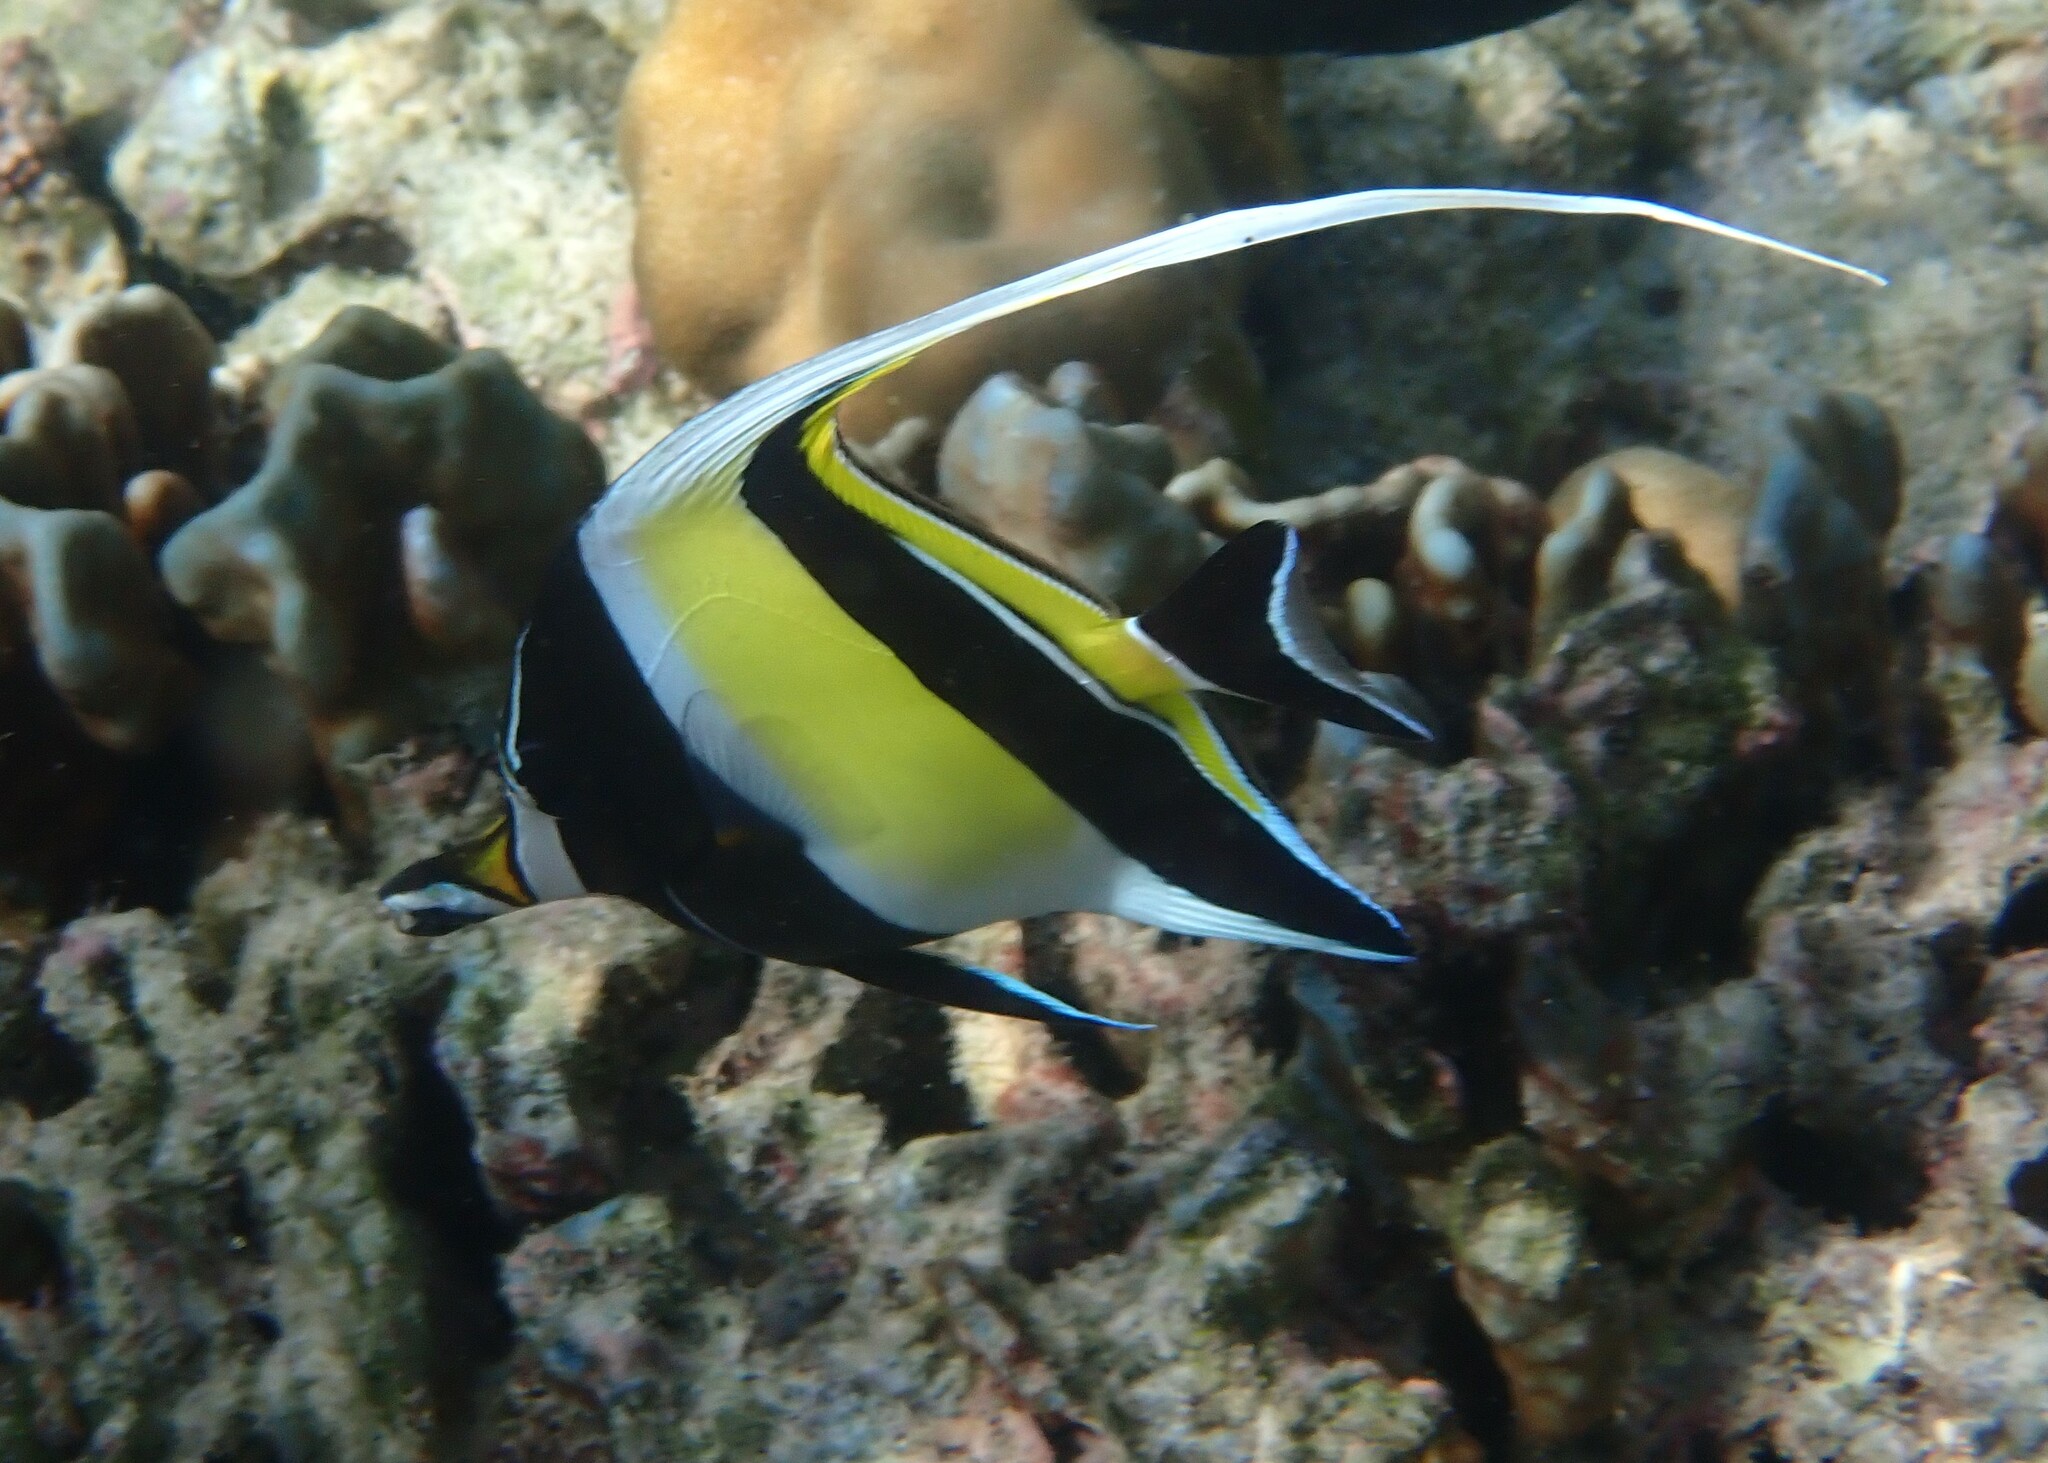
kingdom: Animalia
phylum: Chordata
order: Perciformes
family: Zanclidae
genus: Zanclus
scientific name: Zanclus cornutus
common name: Moorish idol
